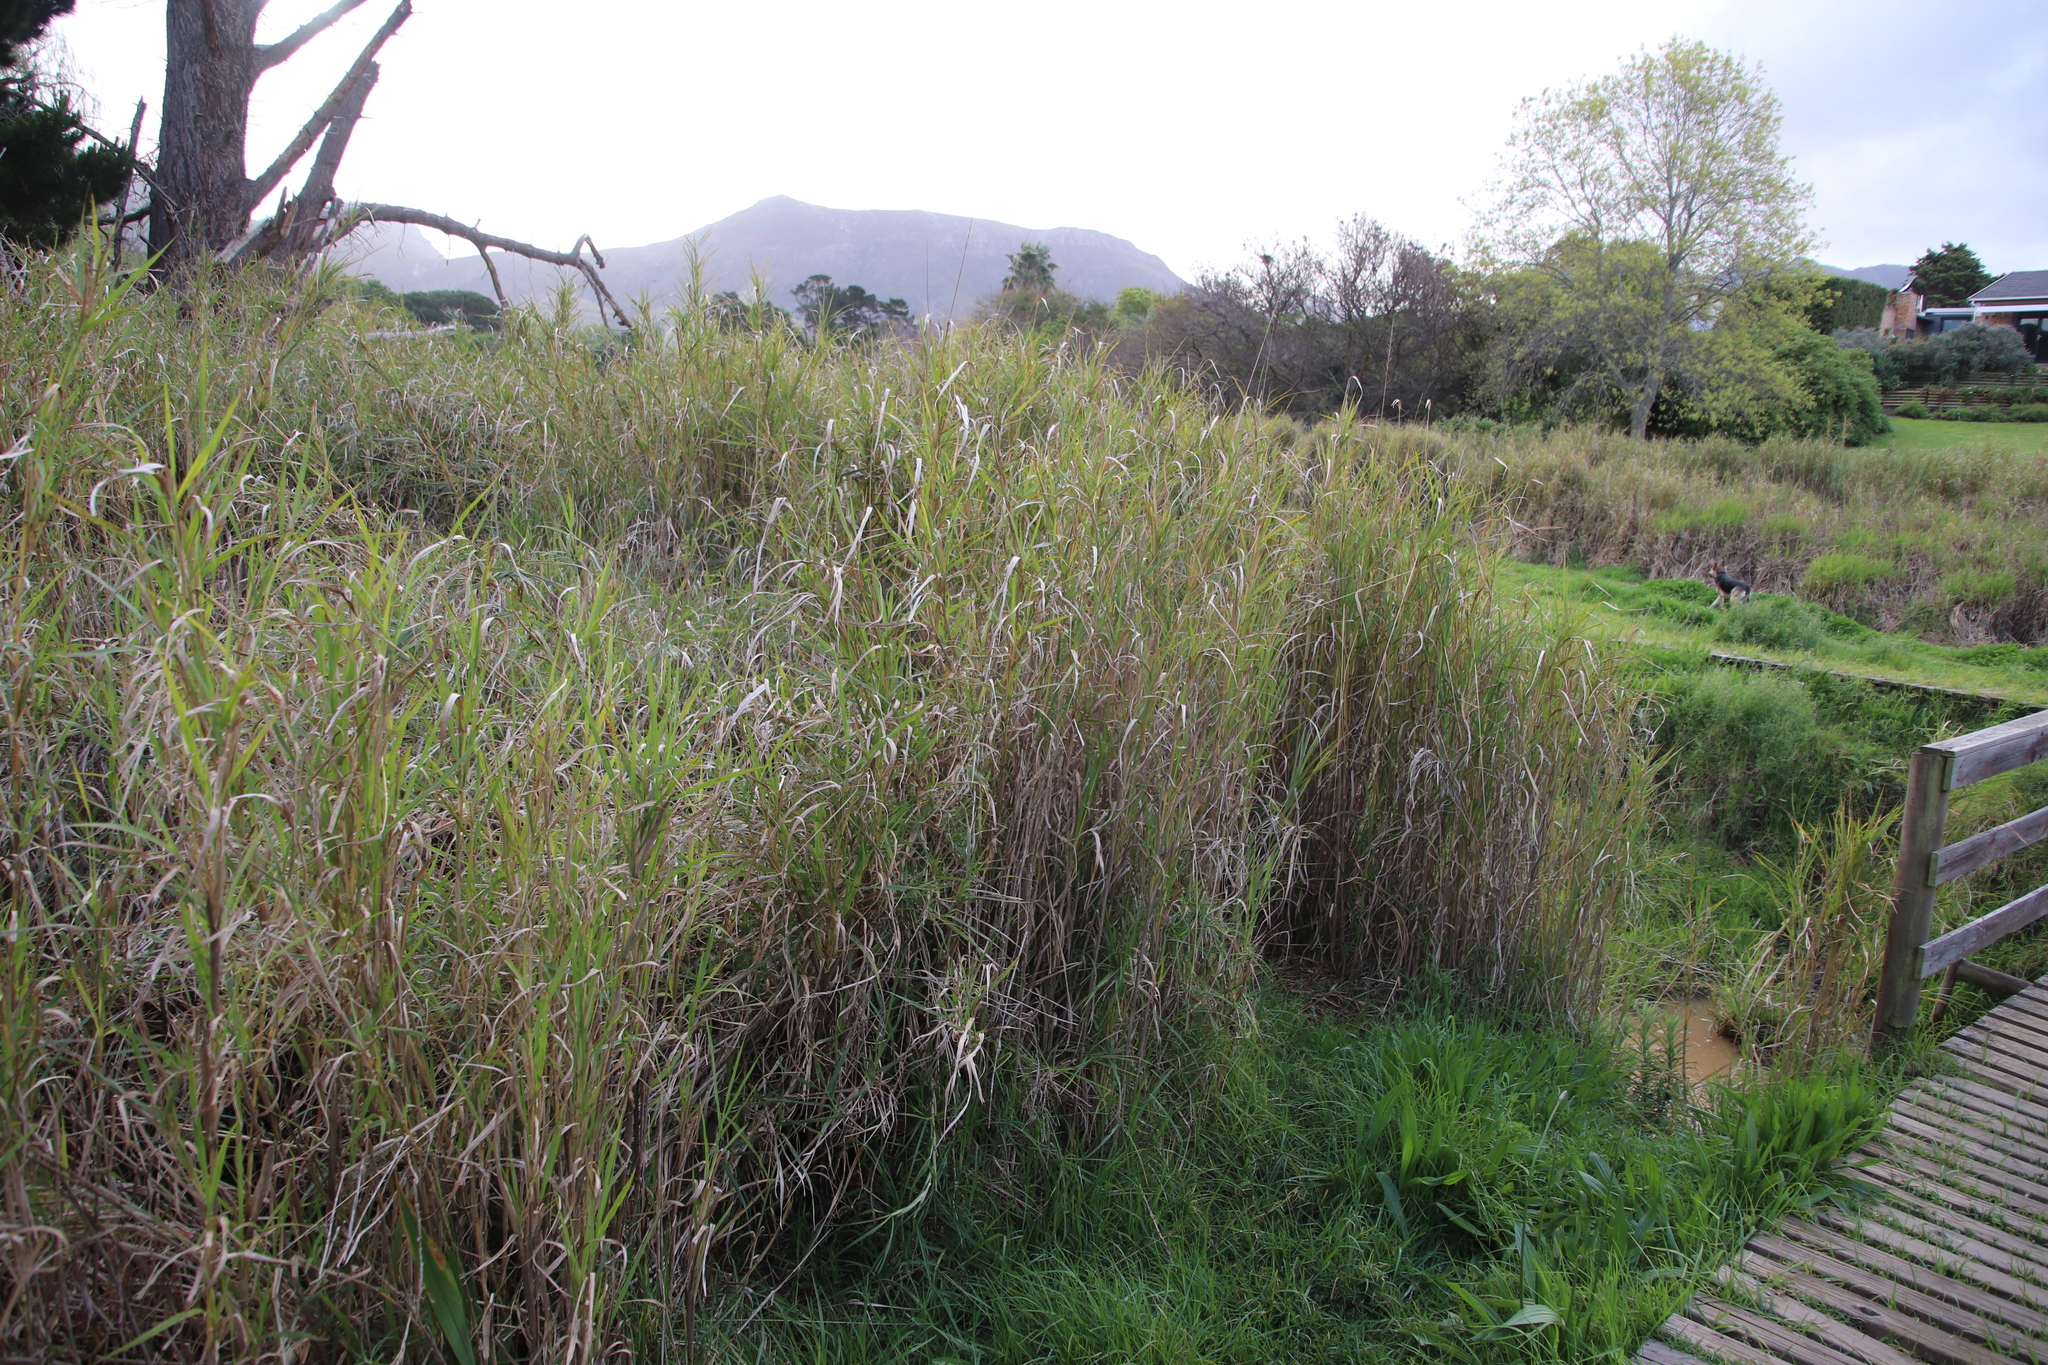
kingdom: Plantae
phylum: Tracheophyta
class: Liliopsida
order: Poales
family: Poaceae
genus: Echinochloa
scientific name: Echinochloa pyramidalis
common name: Antelope grass
